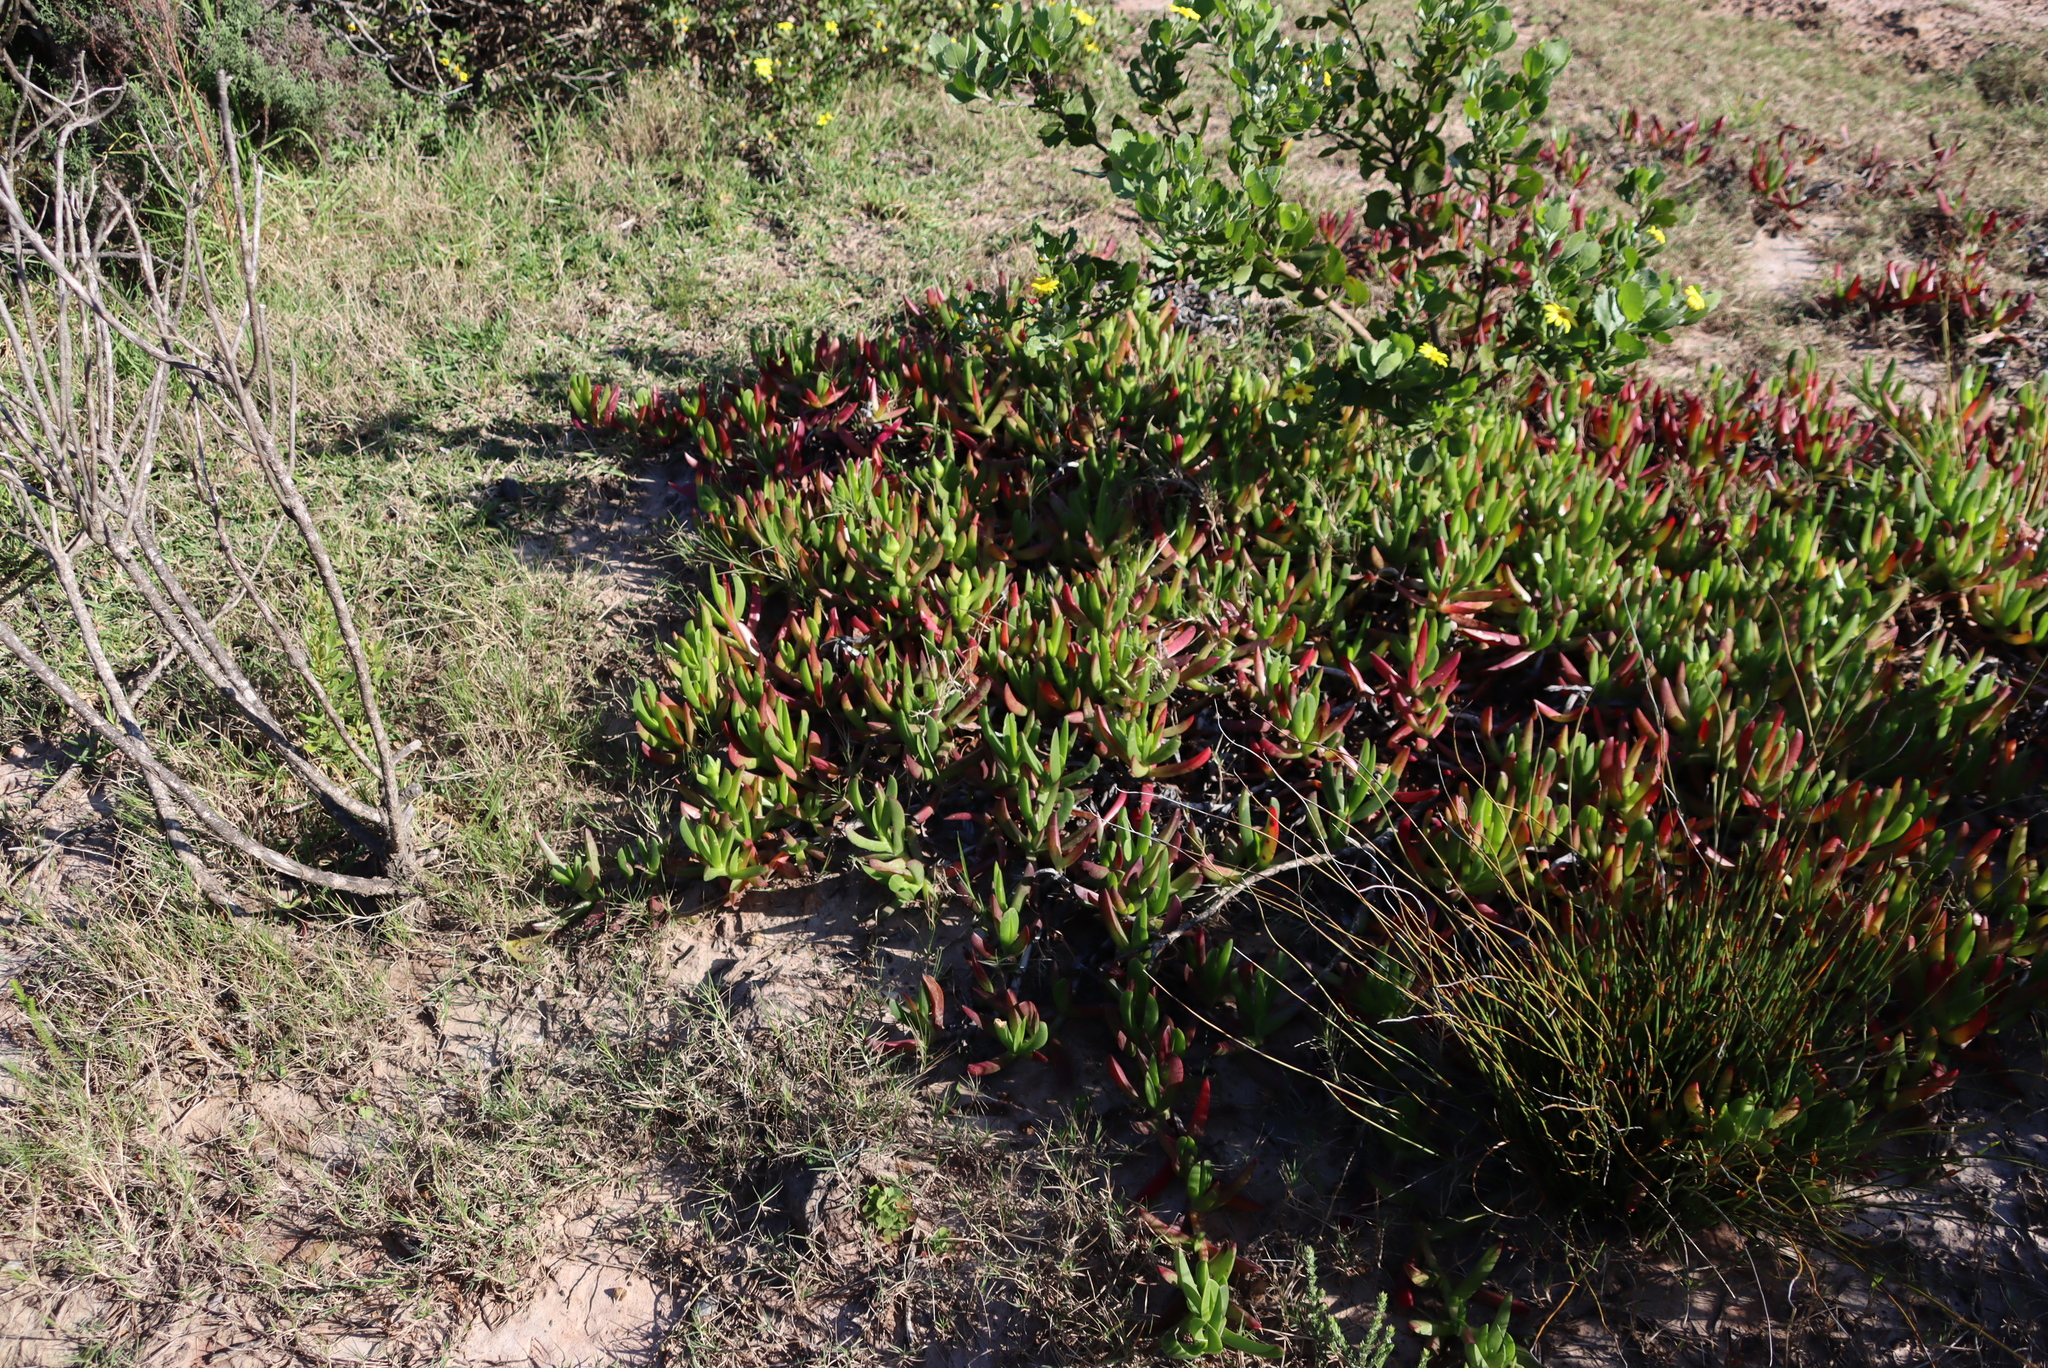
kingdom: Plantae
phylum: Tracheophyta
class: Magnoliopsida
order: Caryophyllales
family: Aizoaceae
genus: Carpobrotus
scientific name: Carpobrotus deliciosus
